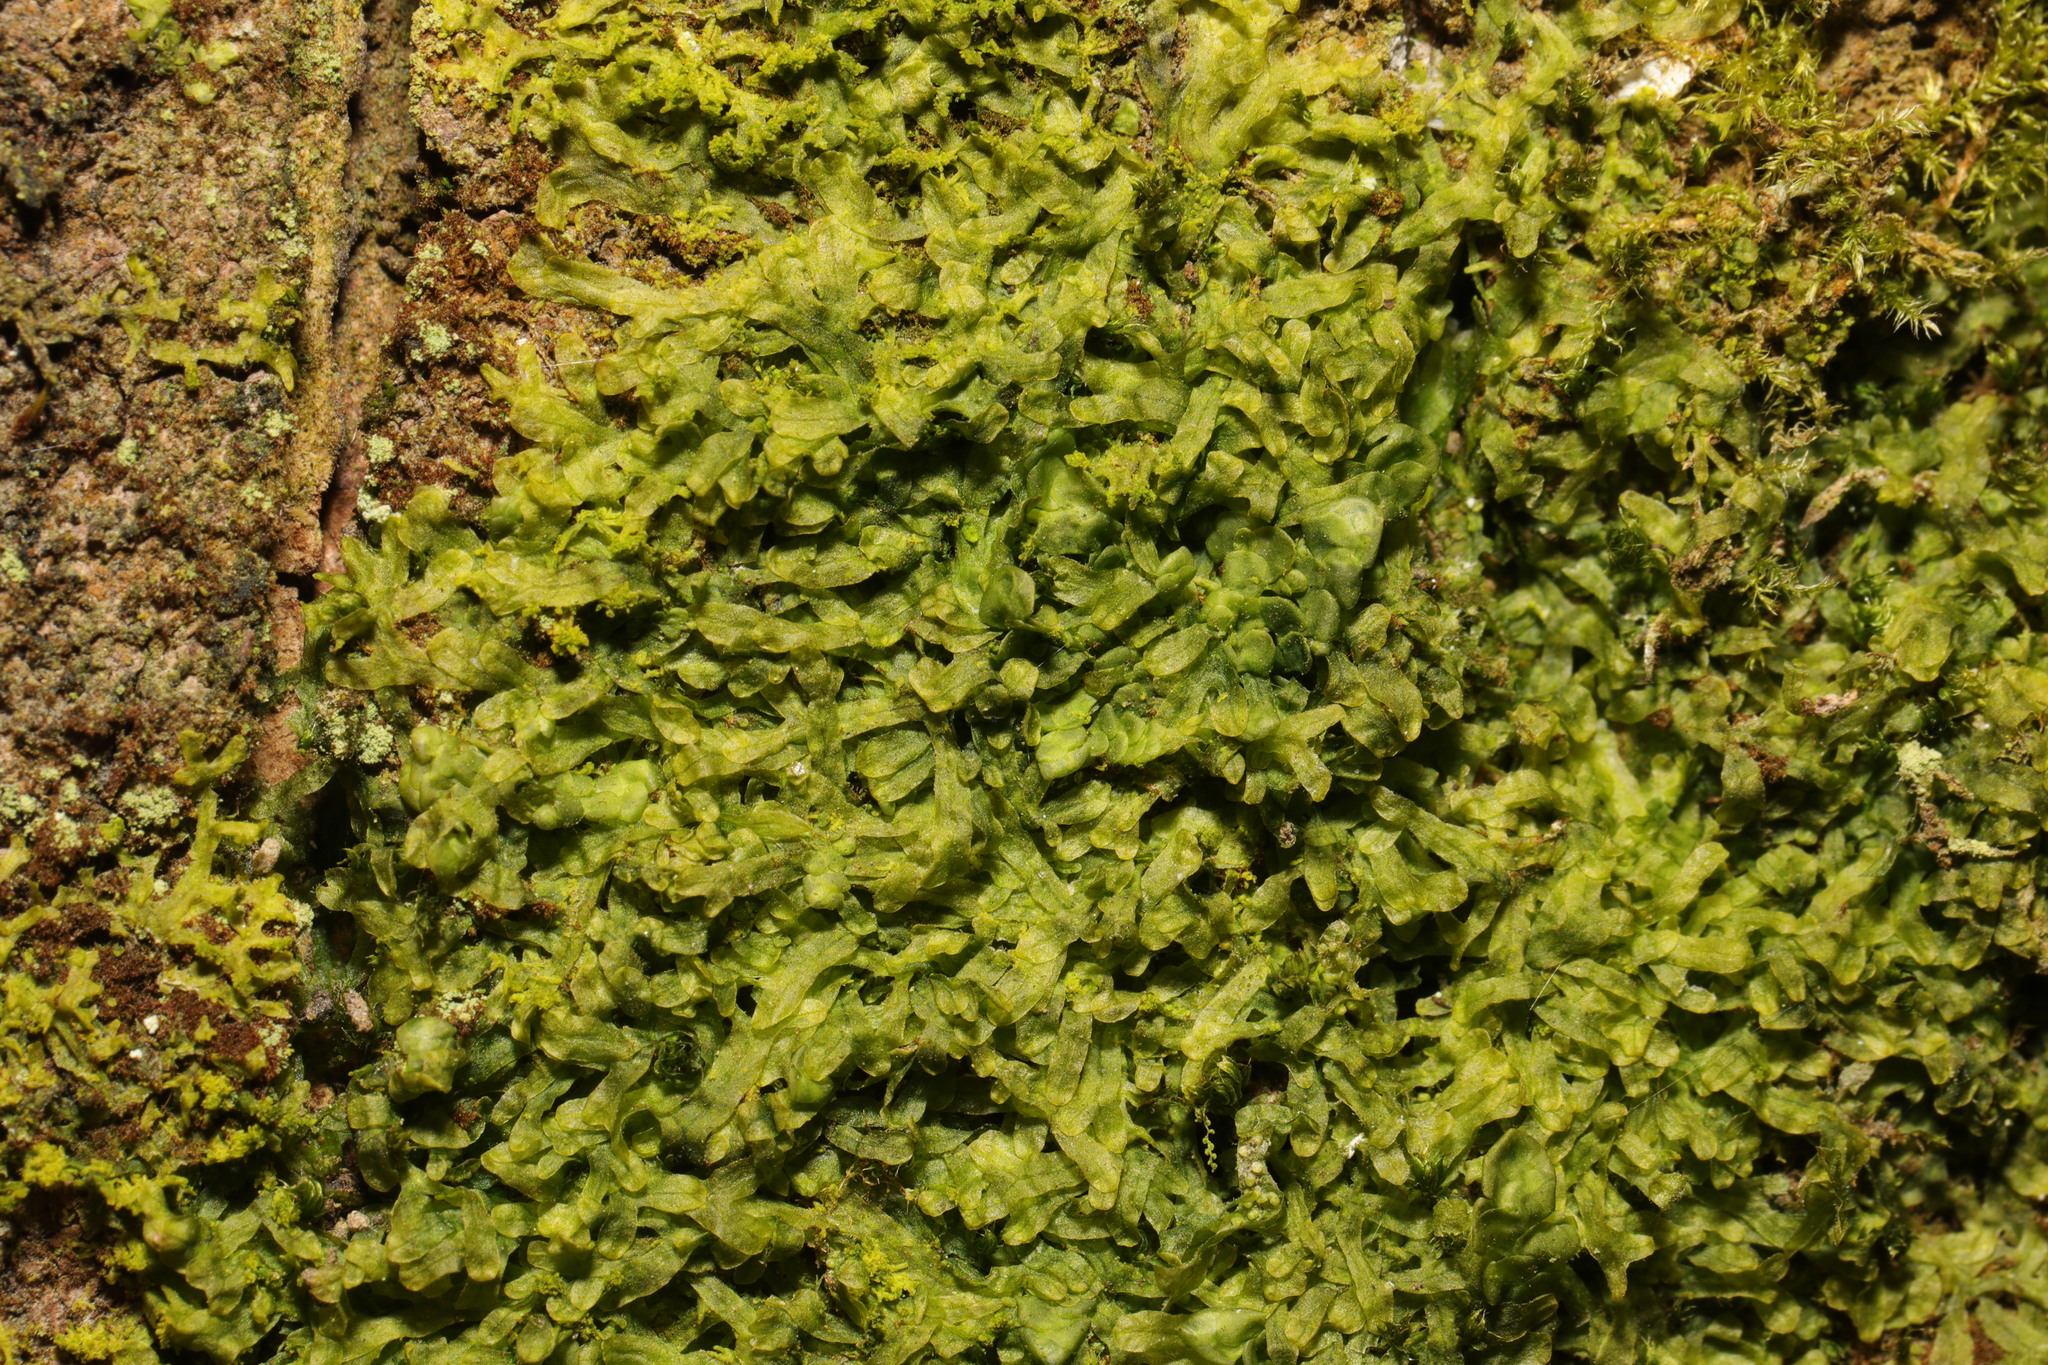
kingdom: Plantae
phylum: Marchantiophyta
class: Jungermanniopsida
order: Metzgeriales
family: Metzgeriaceae
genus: Metzgeria
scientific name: Metzgeria furcata
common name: Forked veilwort
